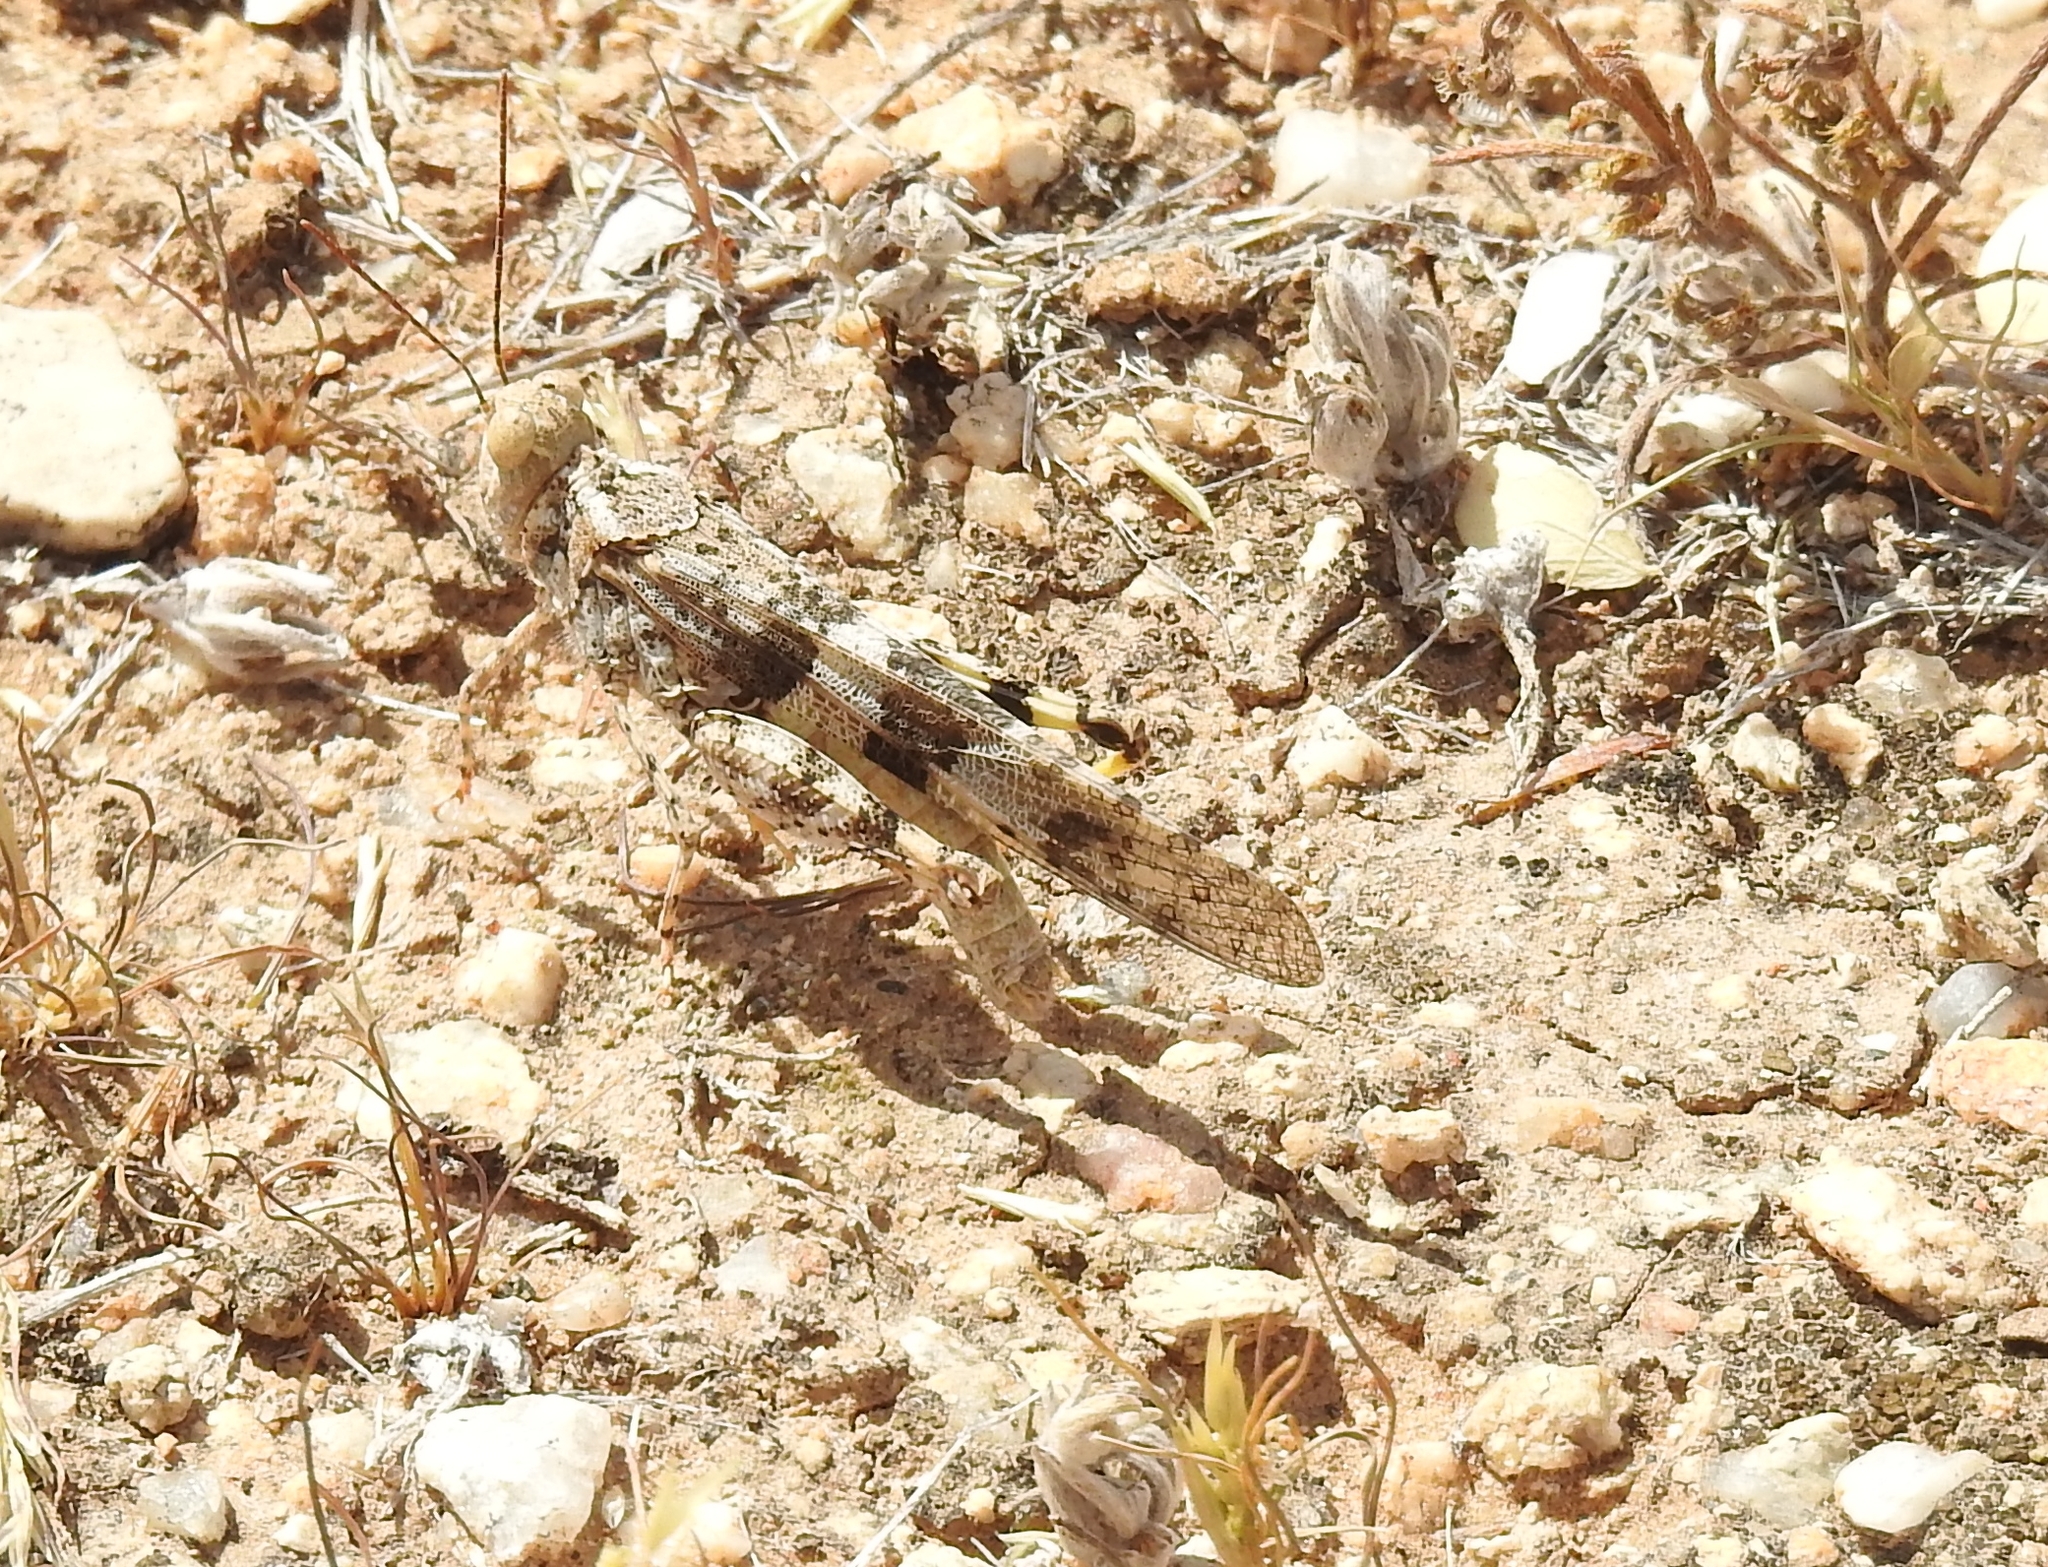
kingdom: Animalia
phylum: Arthropoda
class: Insecta
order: Orthoptera
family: Acrididae
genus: Trimerotropis
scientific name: Trimerotropis pallidipennis
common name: Pallid-winged grasshopper
